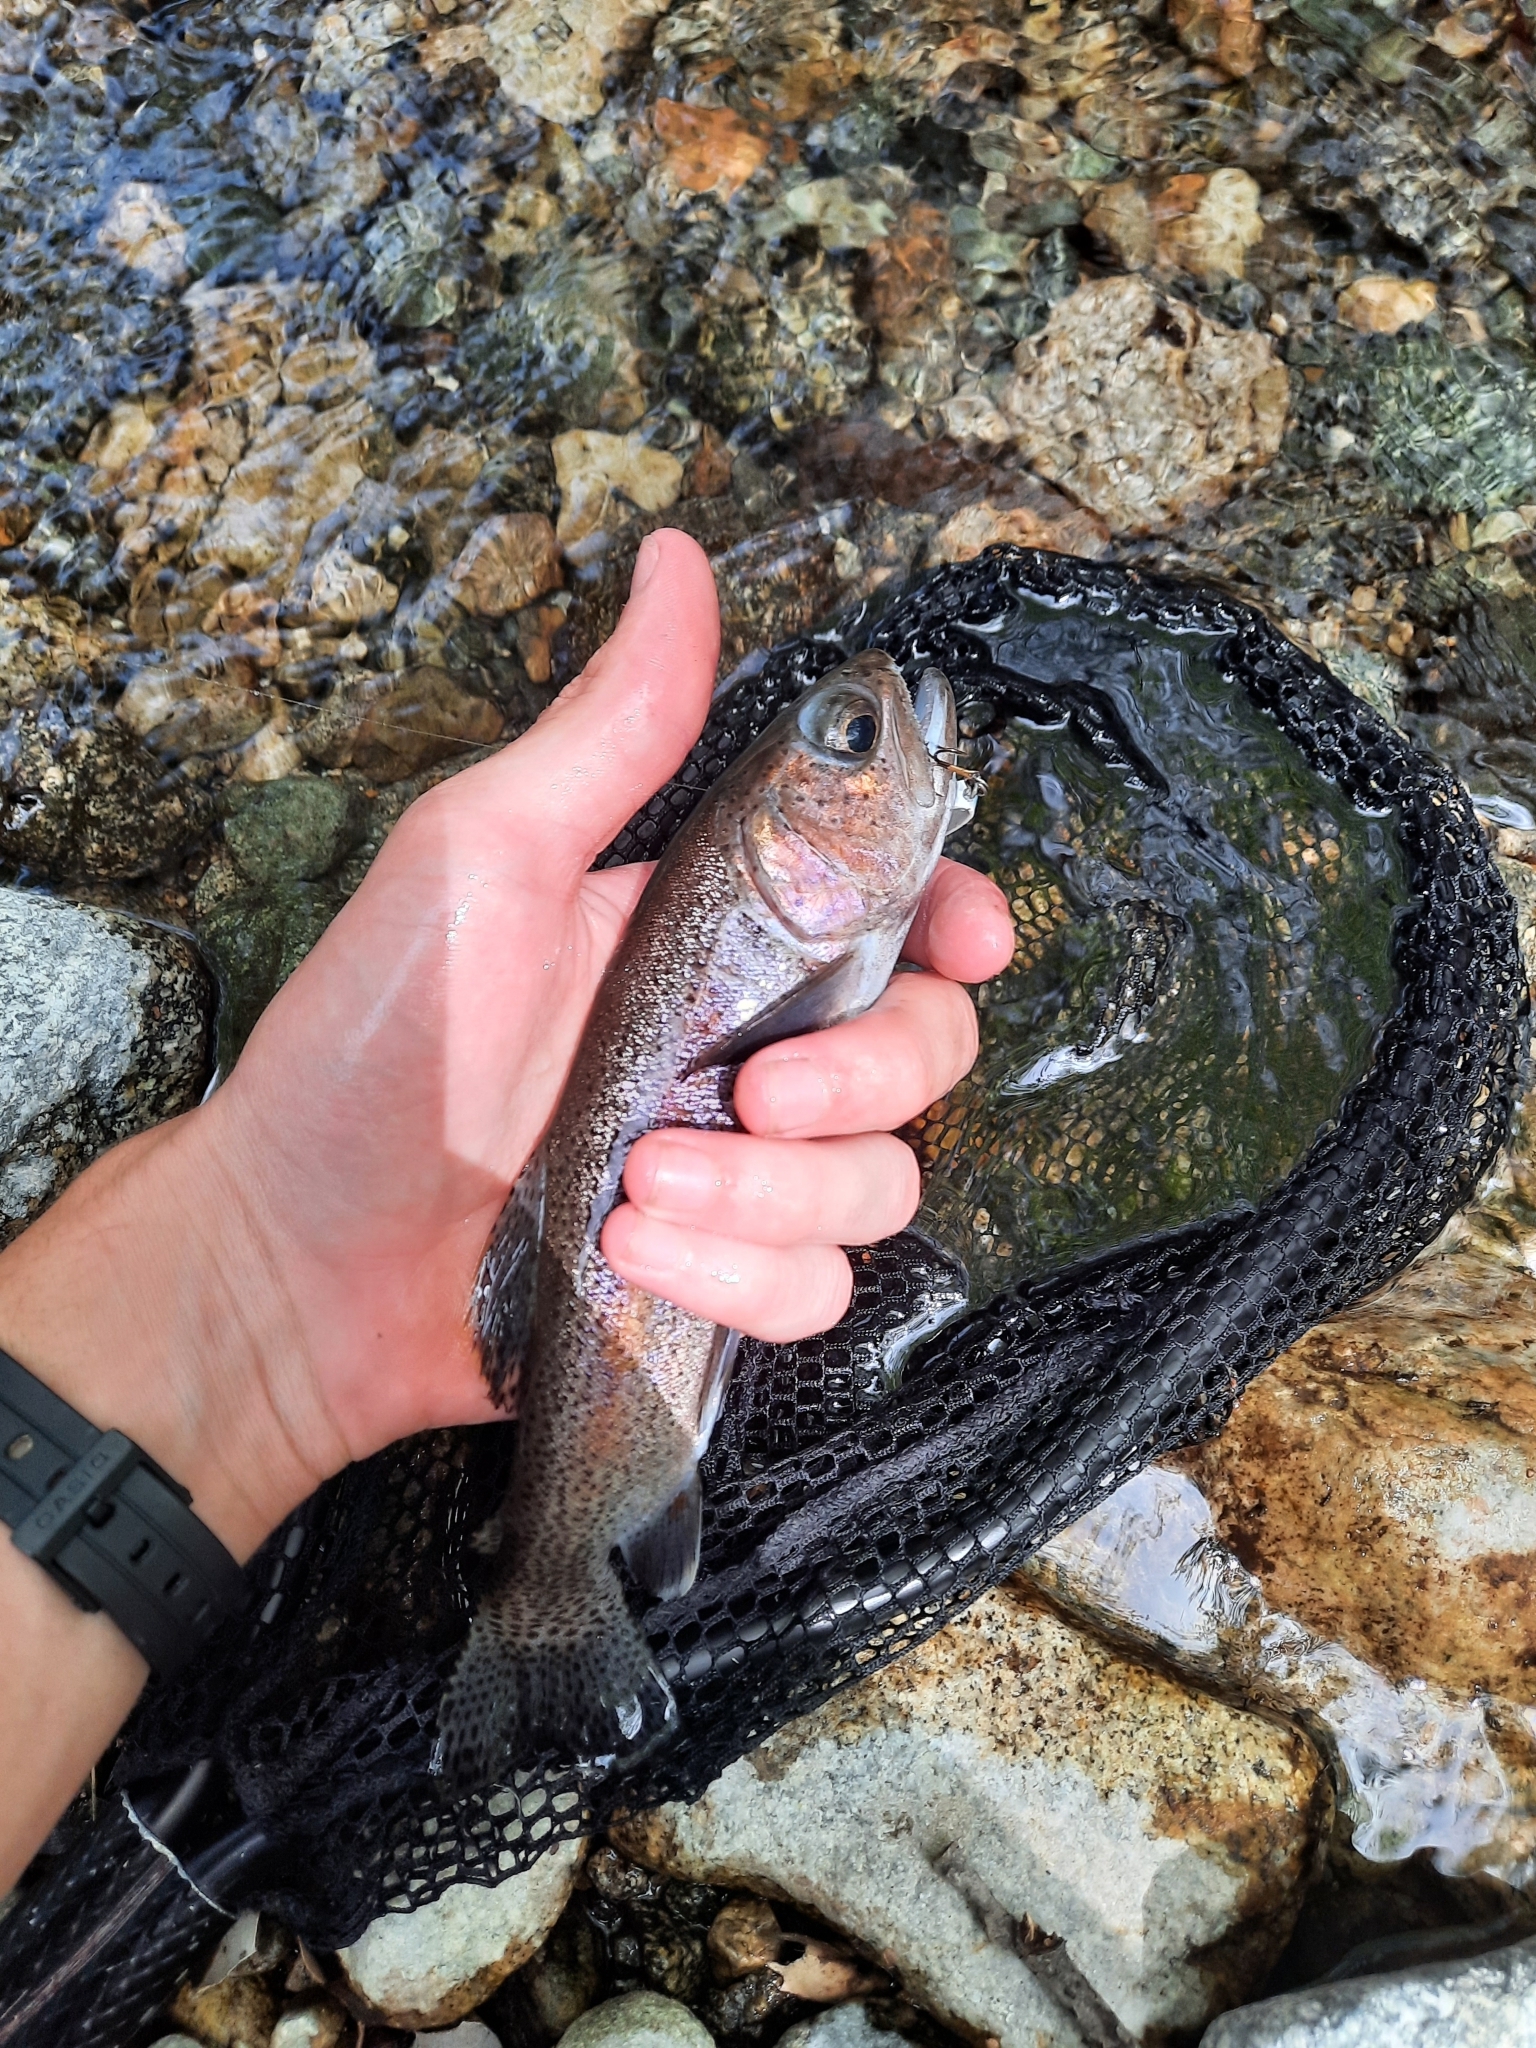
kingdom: Animalia
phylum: Chordata
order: Salmoniformes
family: Salmonidae
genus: Oncorhynchus
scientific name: Oncorhynchus mykiss
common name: Rainbow trout
